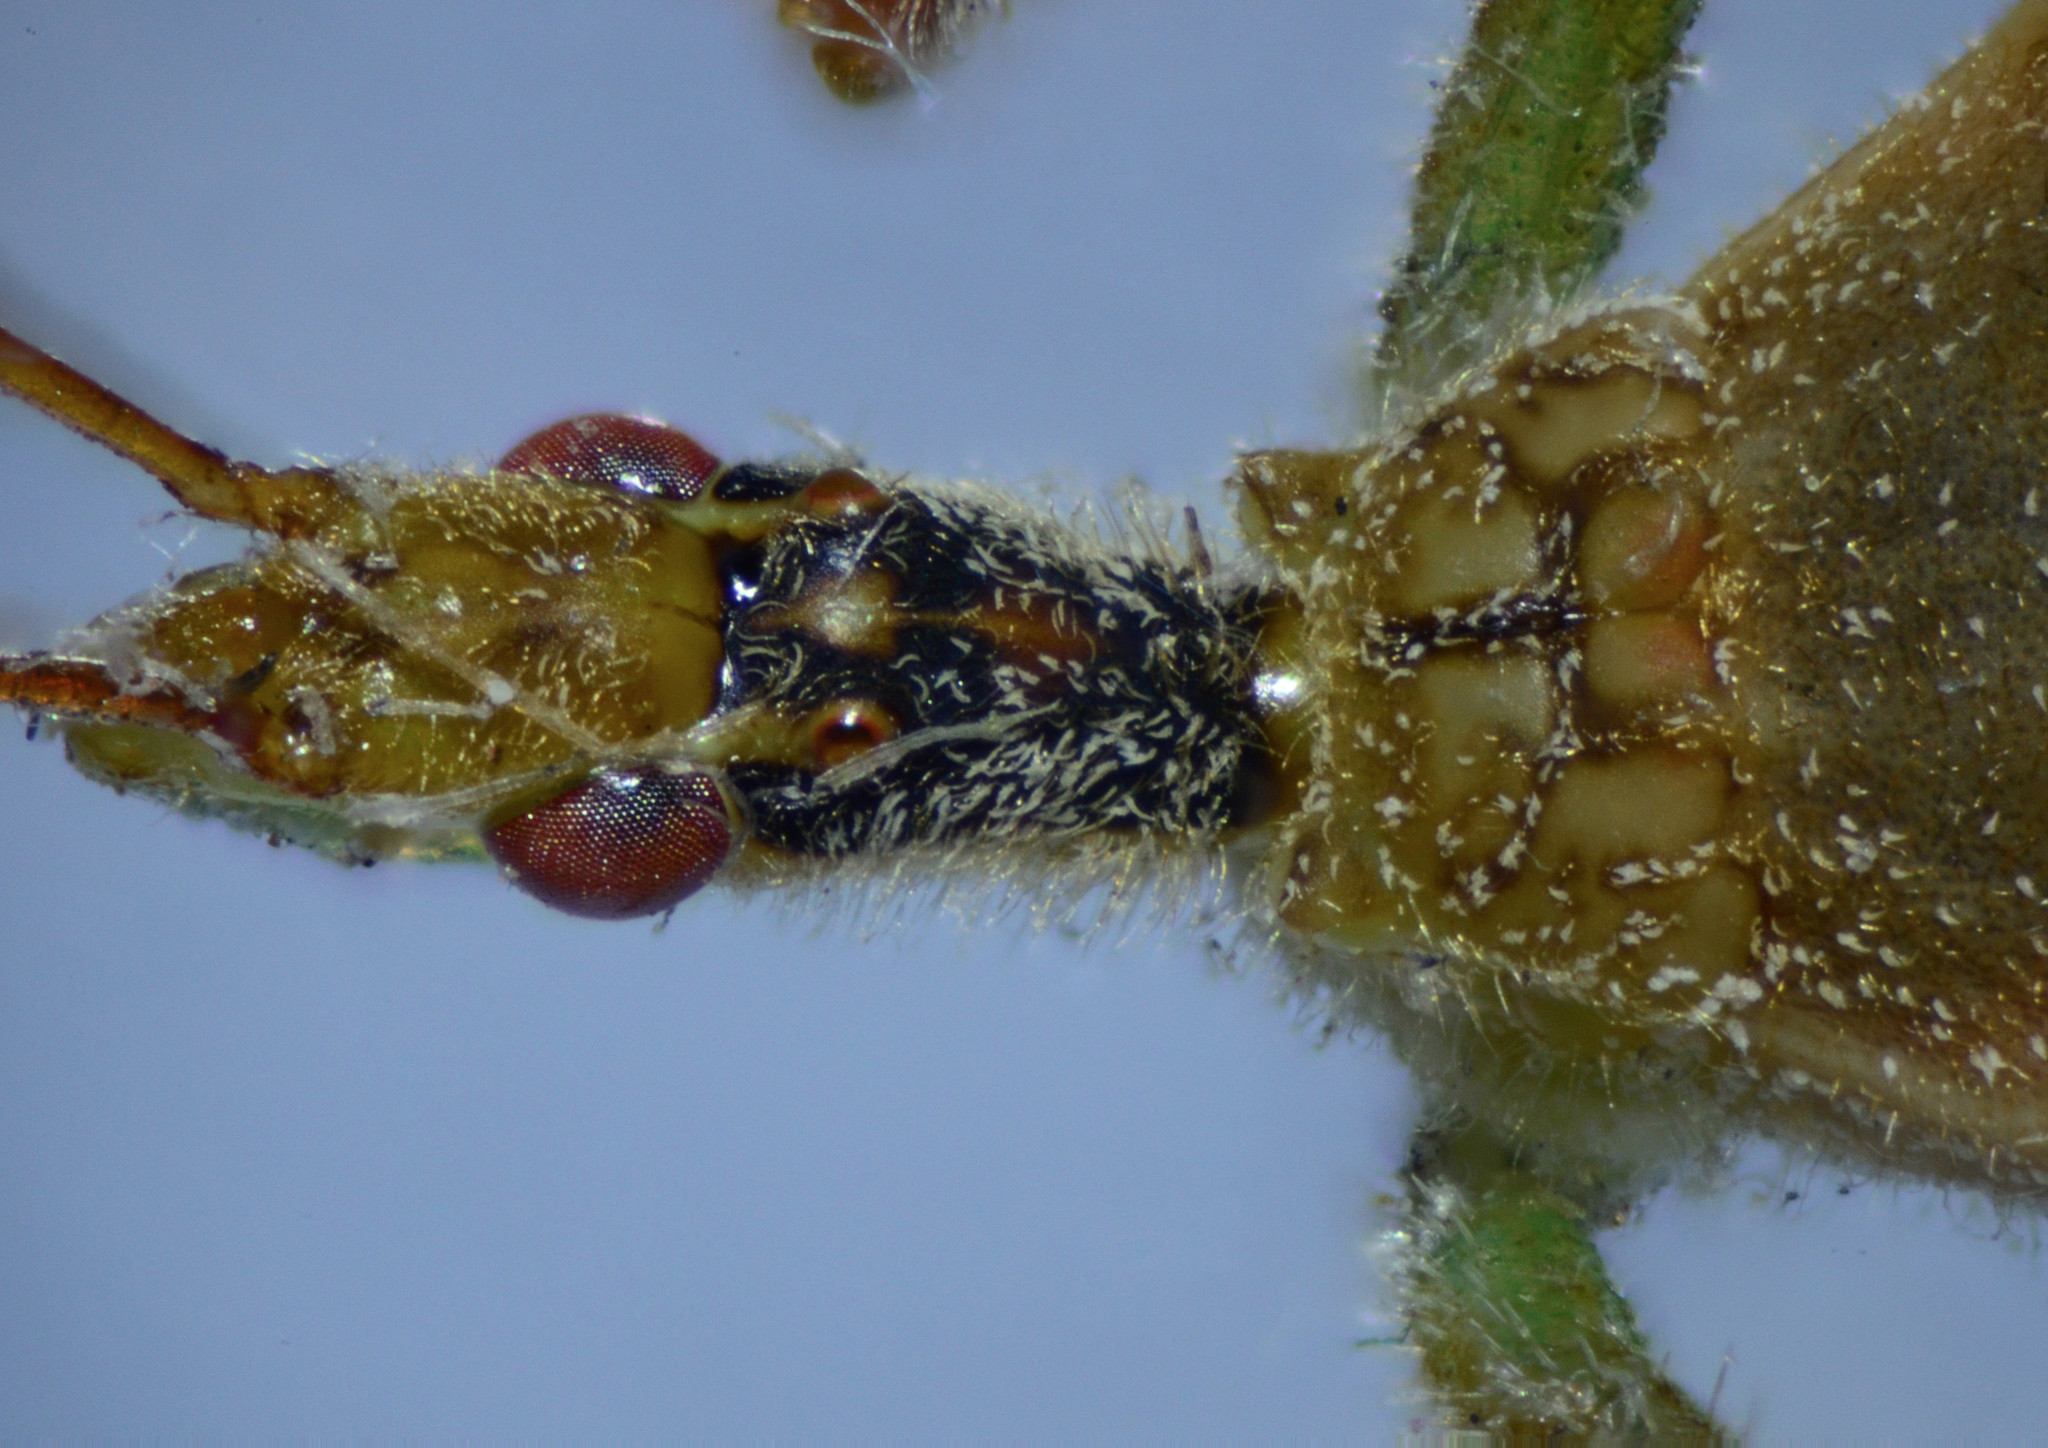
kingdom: Animalia
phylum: Arthropoda
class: Insecta
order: Hemiptera
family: Reduviidae
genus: Zelus
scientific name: Zelus renardii
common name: Assassin bug
